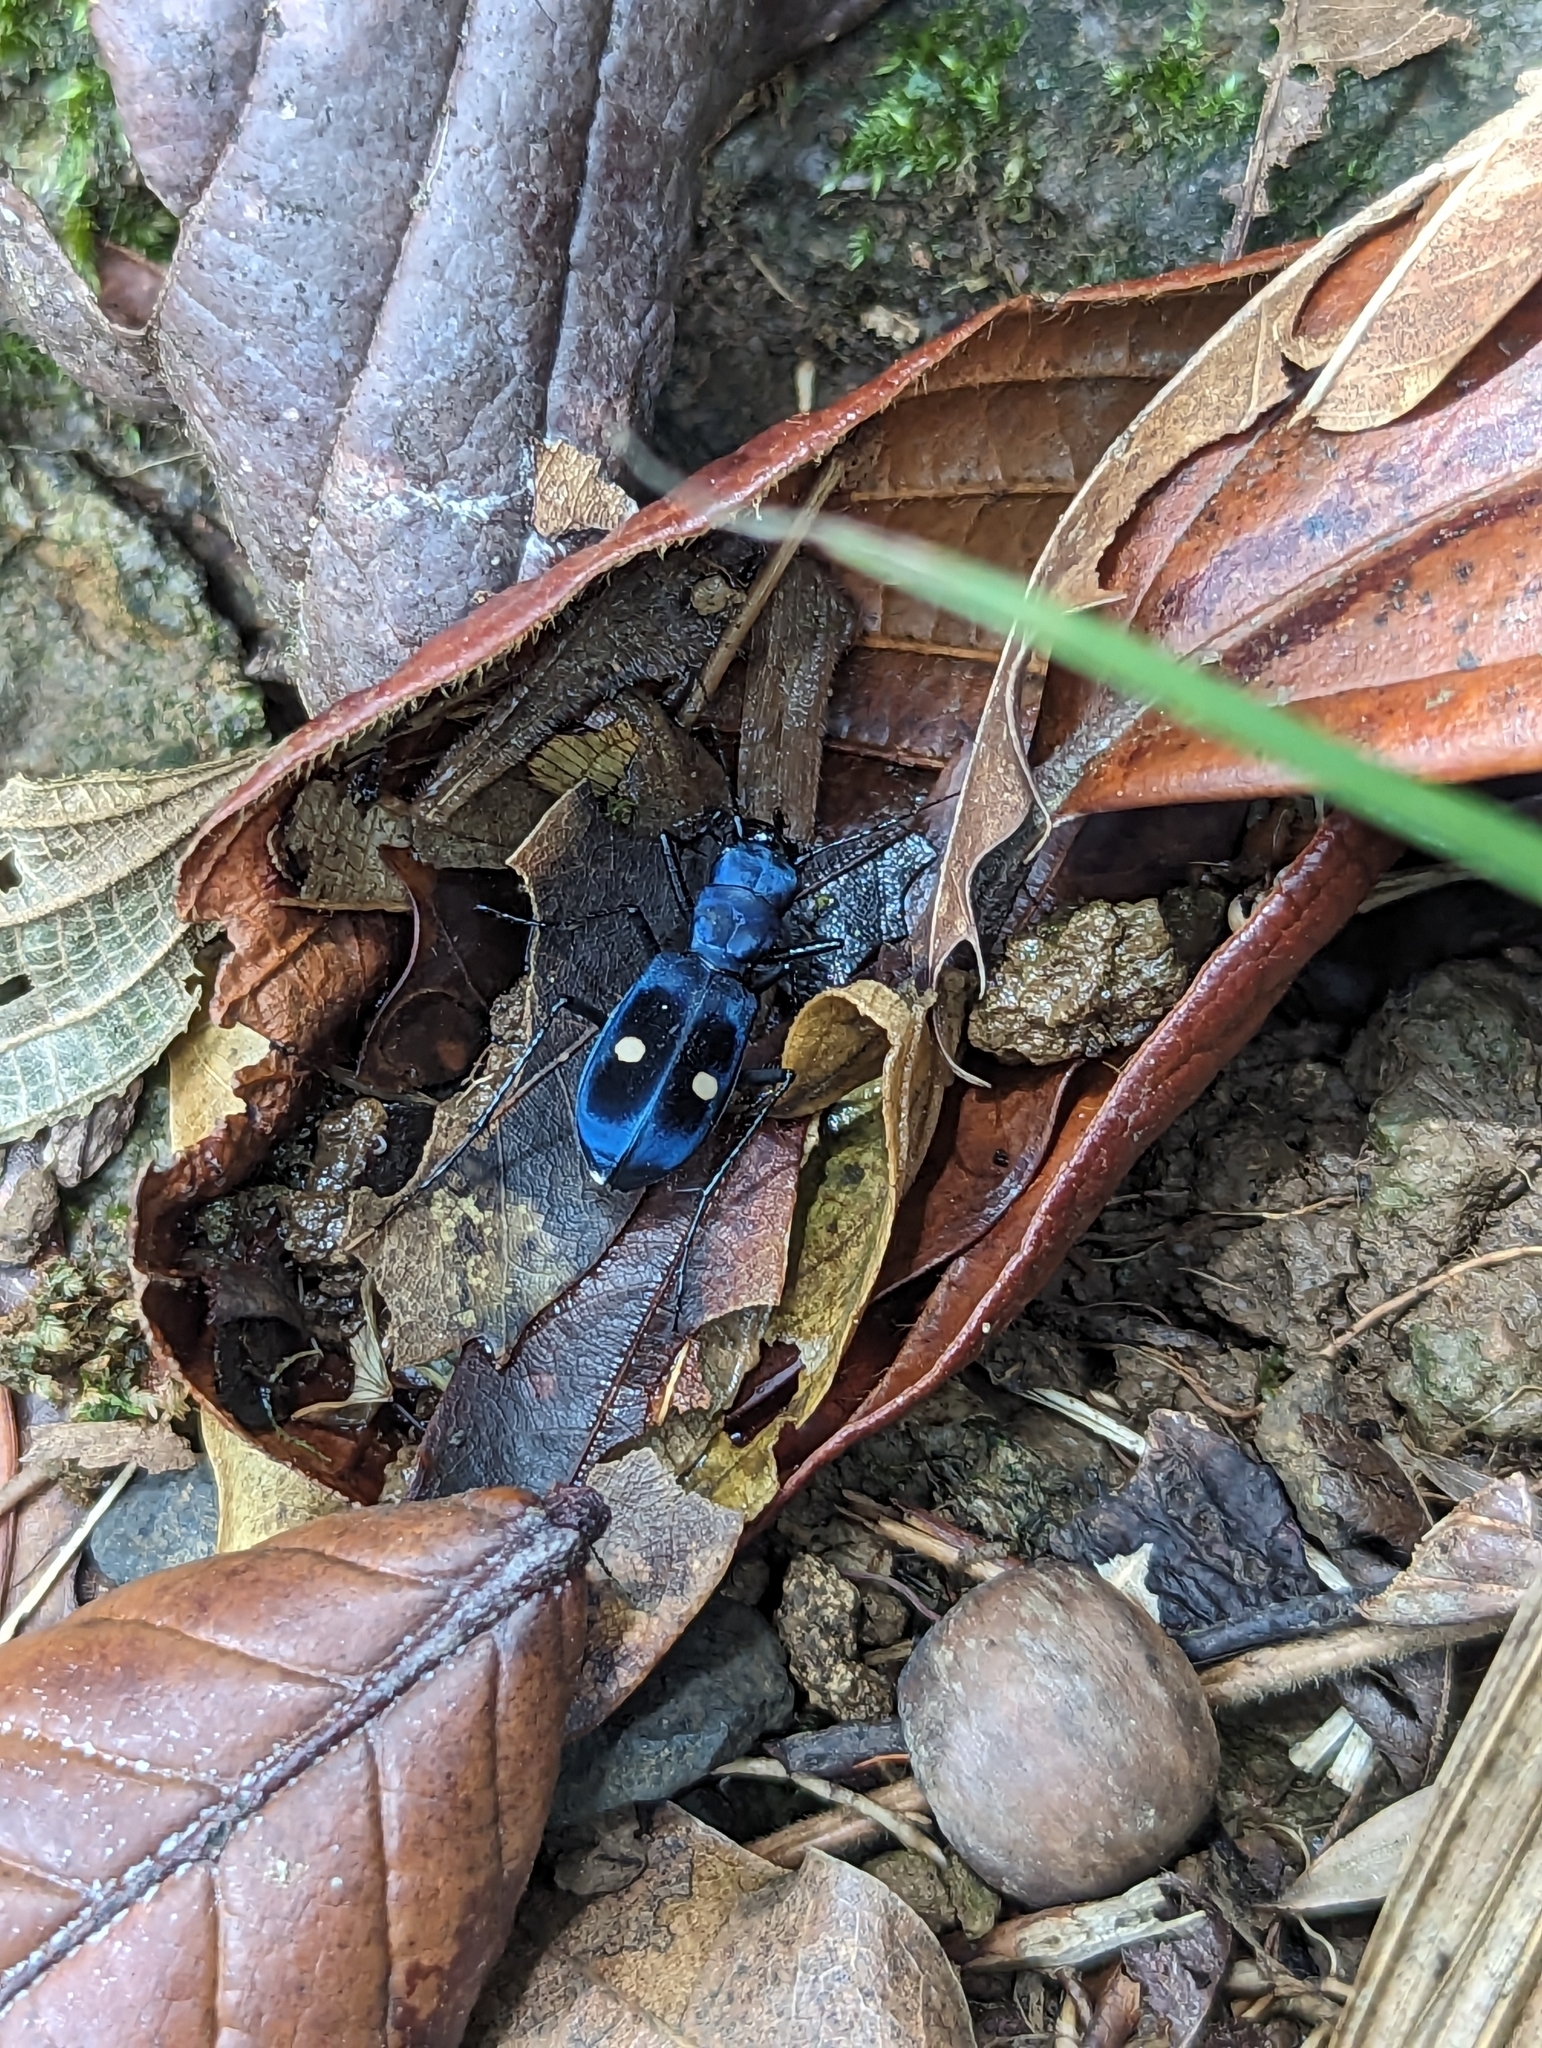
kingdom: Animalia
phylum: Arthropoda
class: Insecta
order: Coleoptera
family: Carabidae
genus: Pseudoxycheila
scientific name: Pseudoxycheila tarsalis
